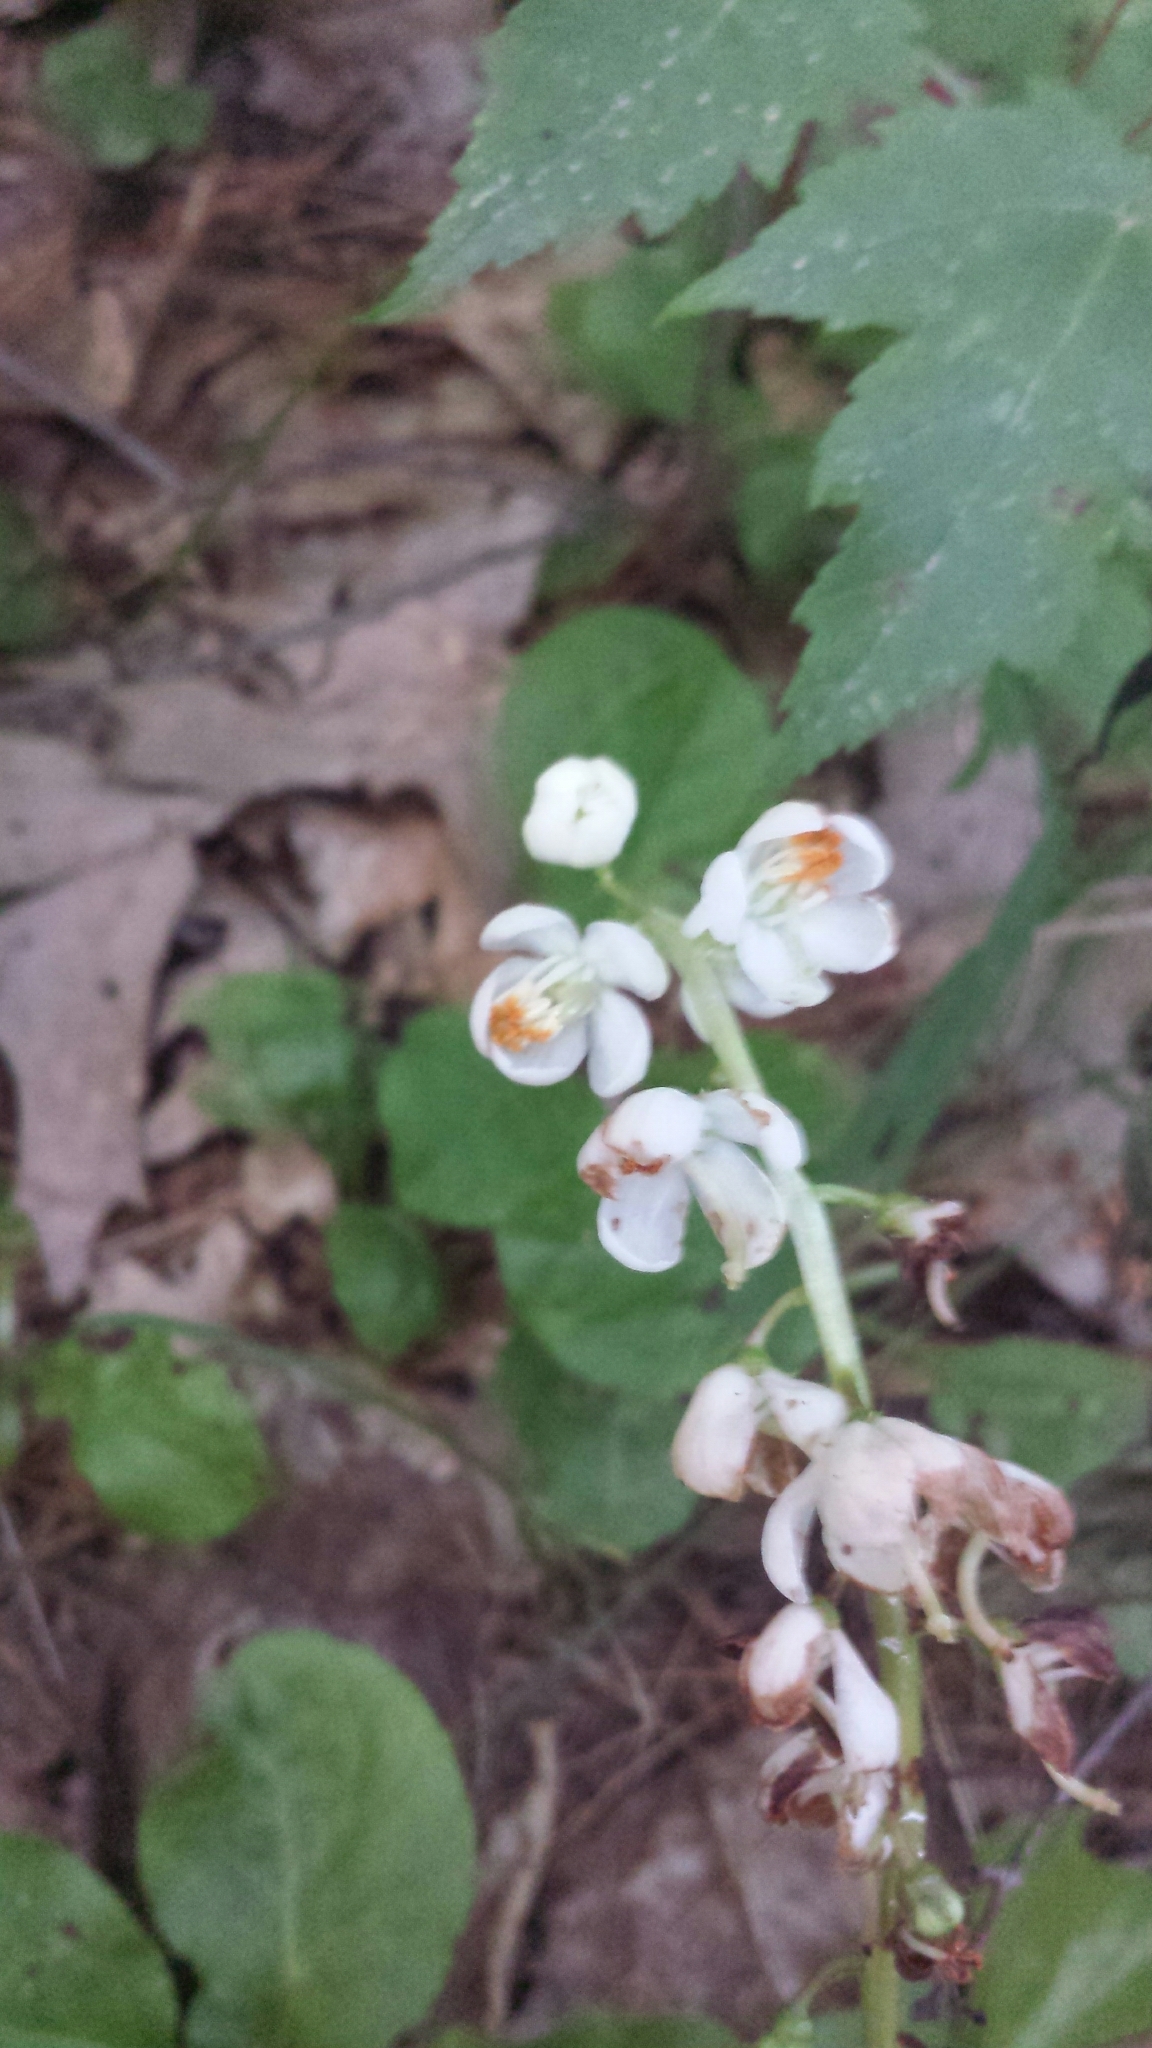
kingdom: Plantae
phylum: Tracheophyta
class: Magnoliopsida
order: Ericales
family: Ericaceae
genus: Pyrola
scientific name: Pyrola elliptica
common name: Shinleaf
